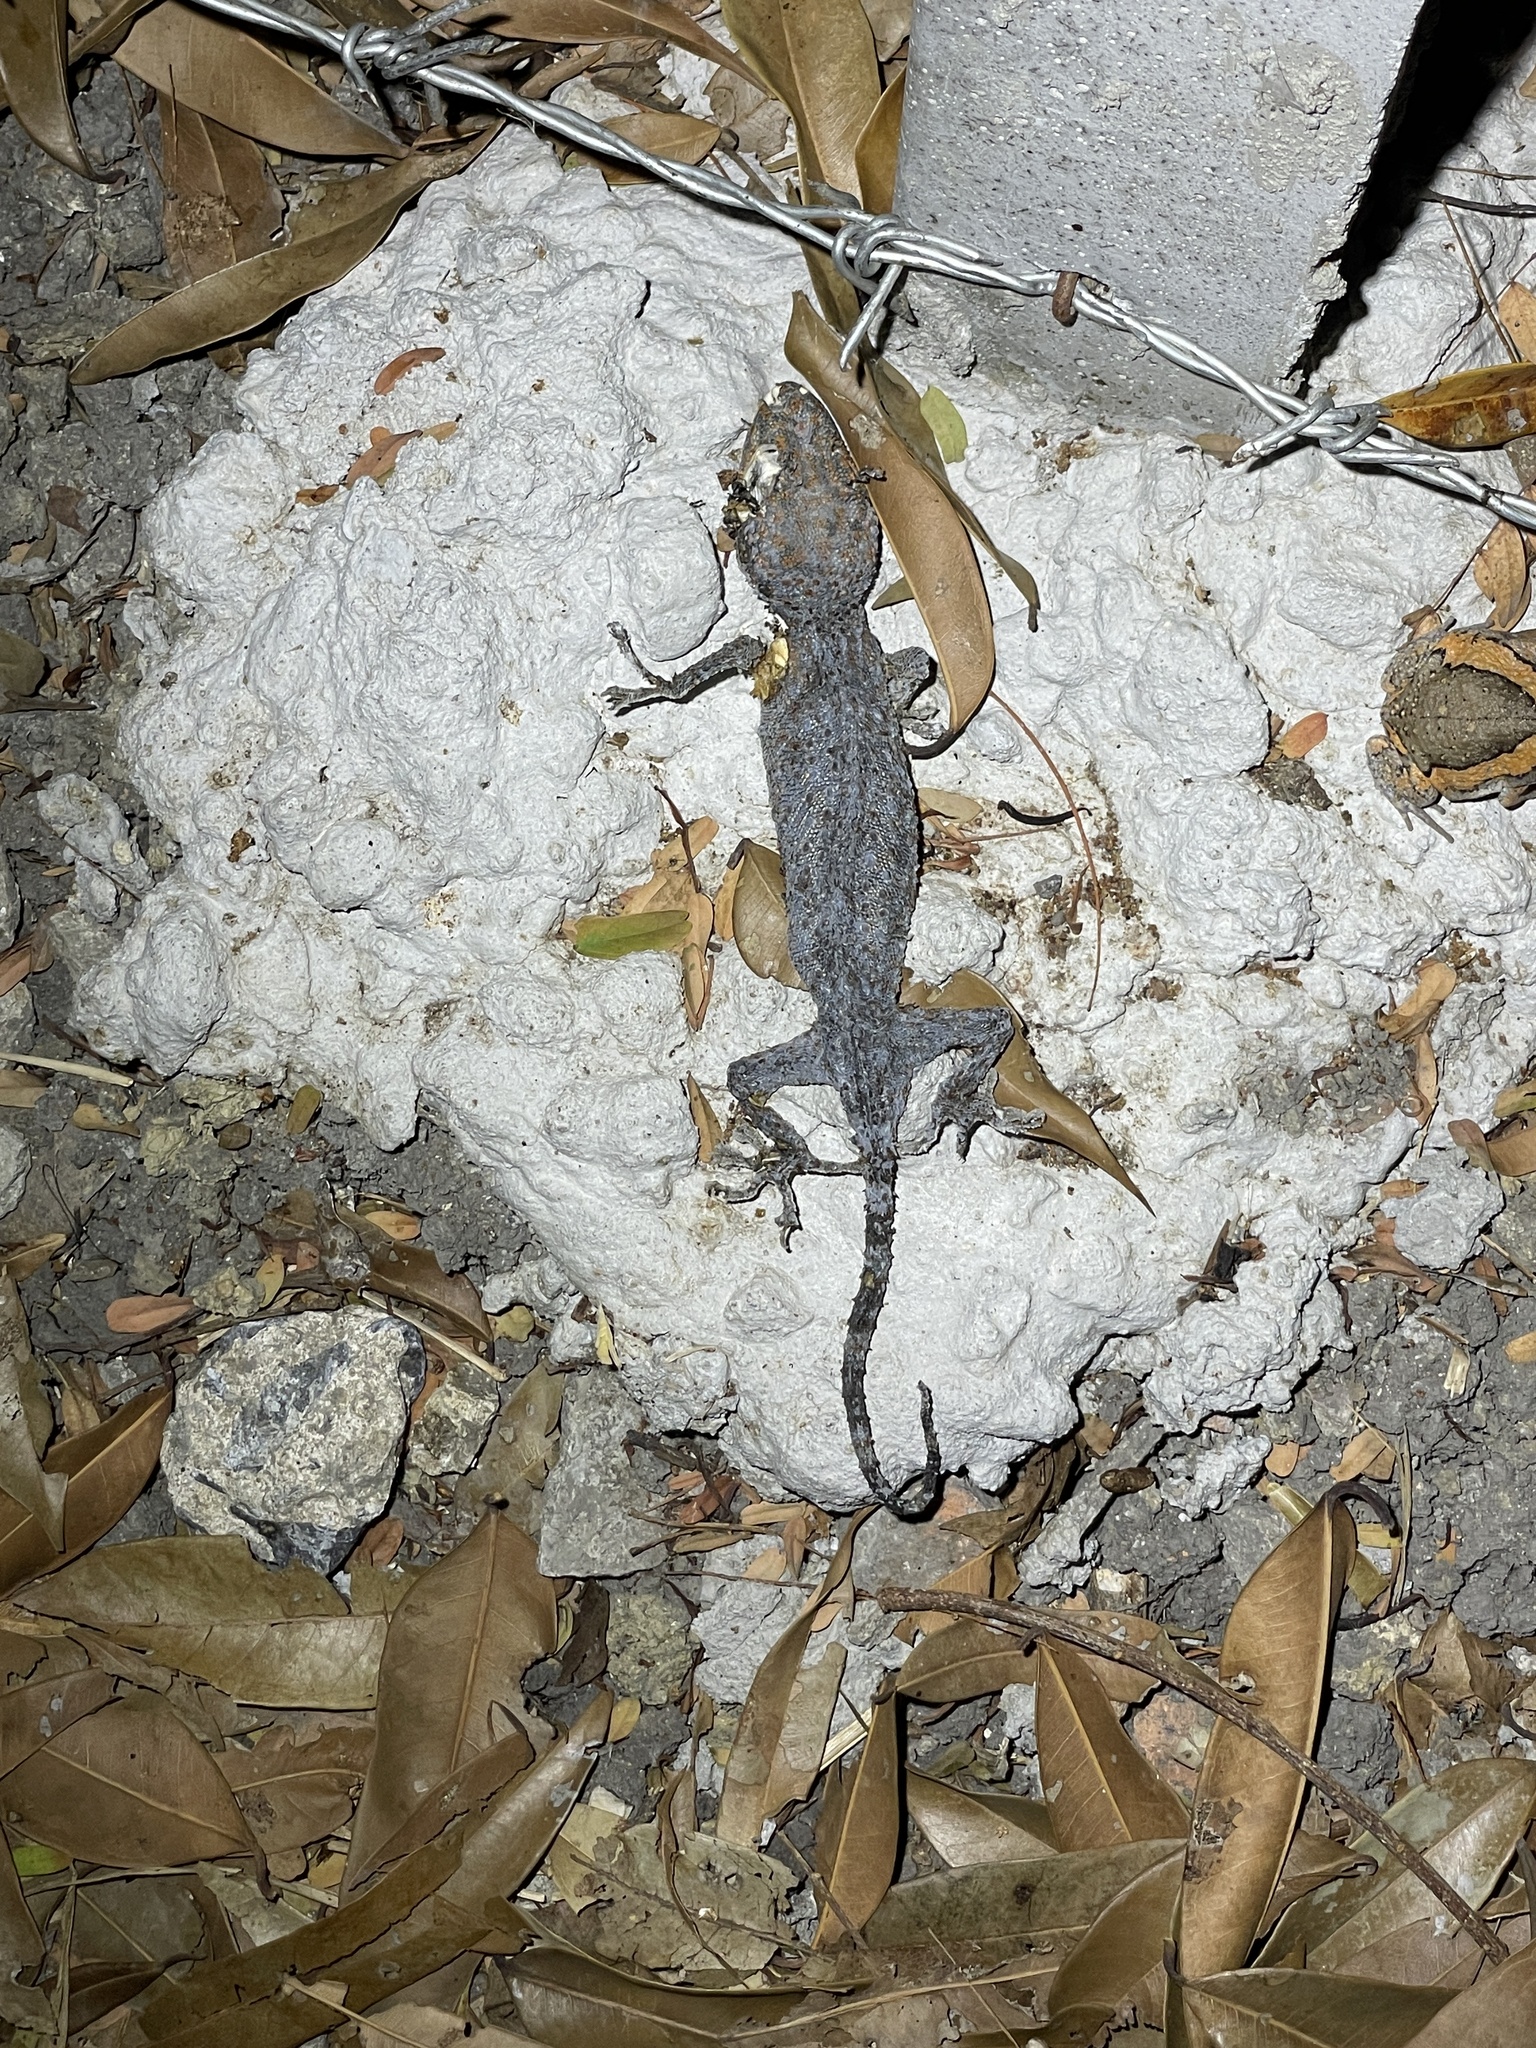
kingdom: Animalia
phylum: Chordata
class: Squamata
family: Gekkonidae
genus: Gekko
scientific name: Gekko gecko
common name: Tokay gecko
